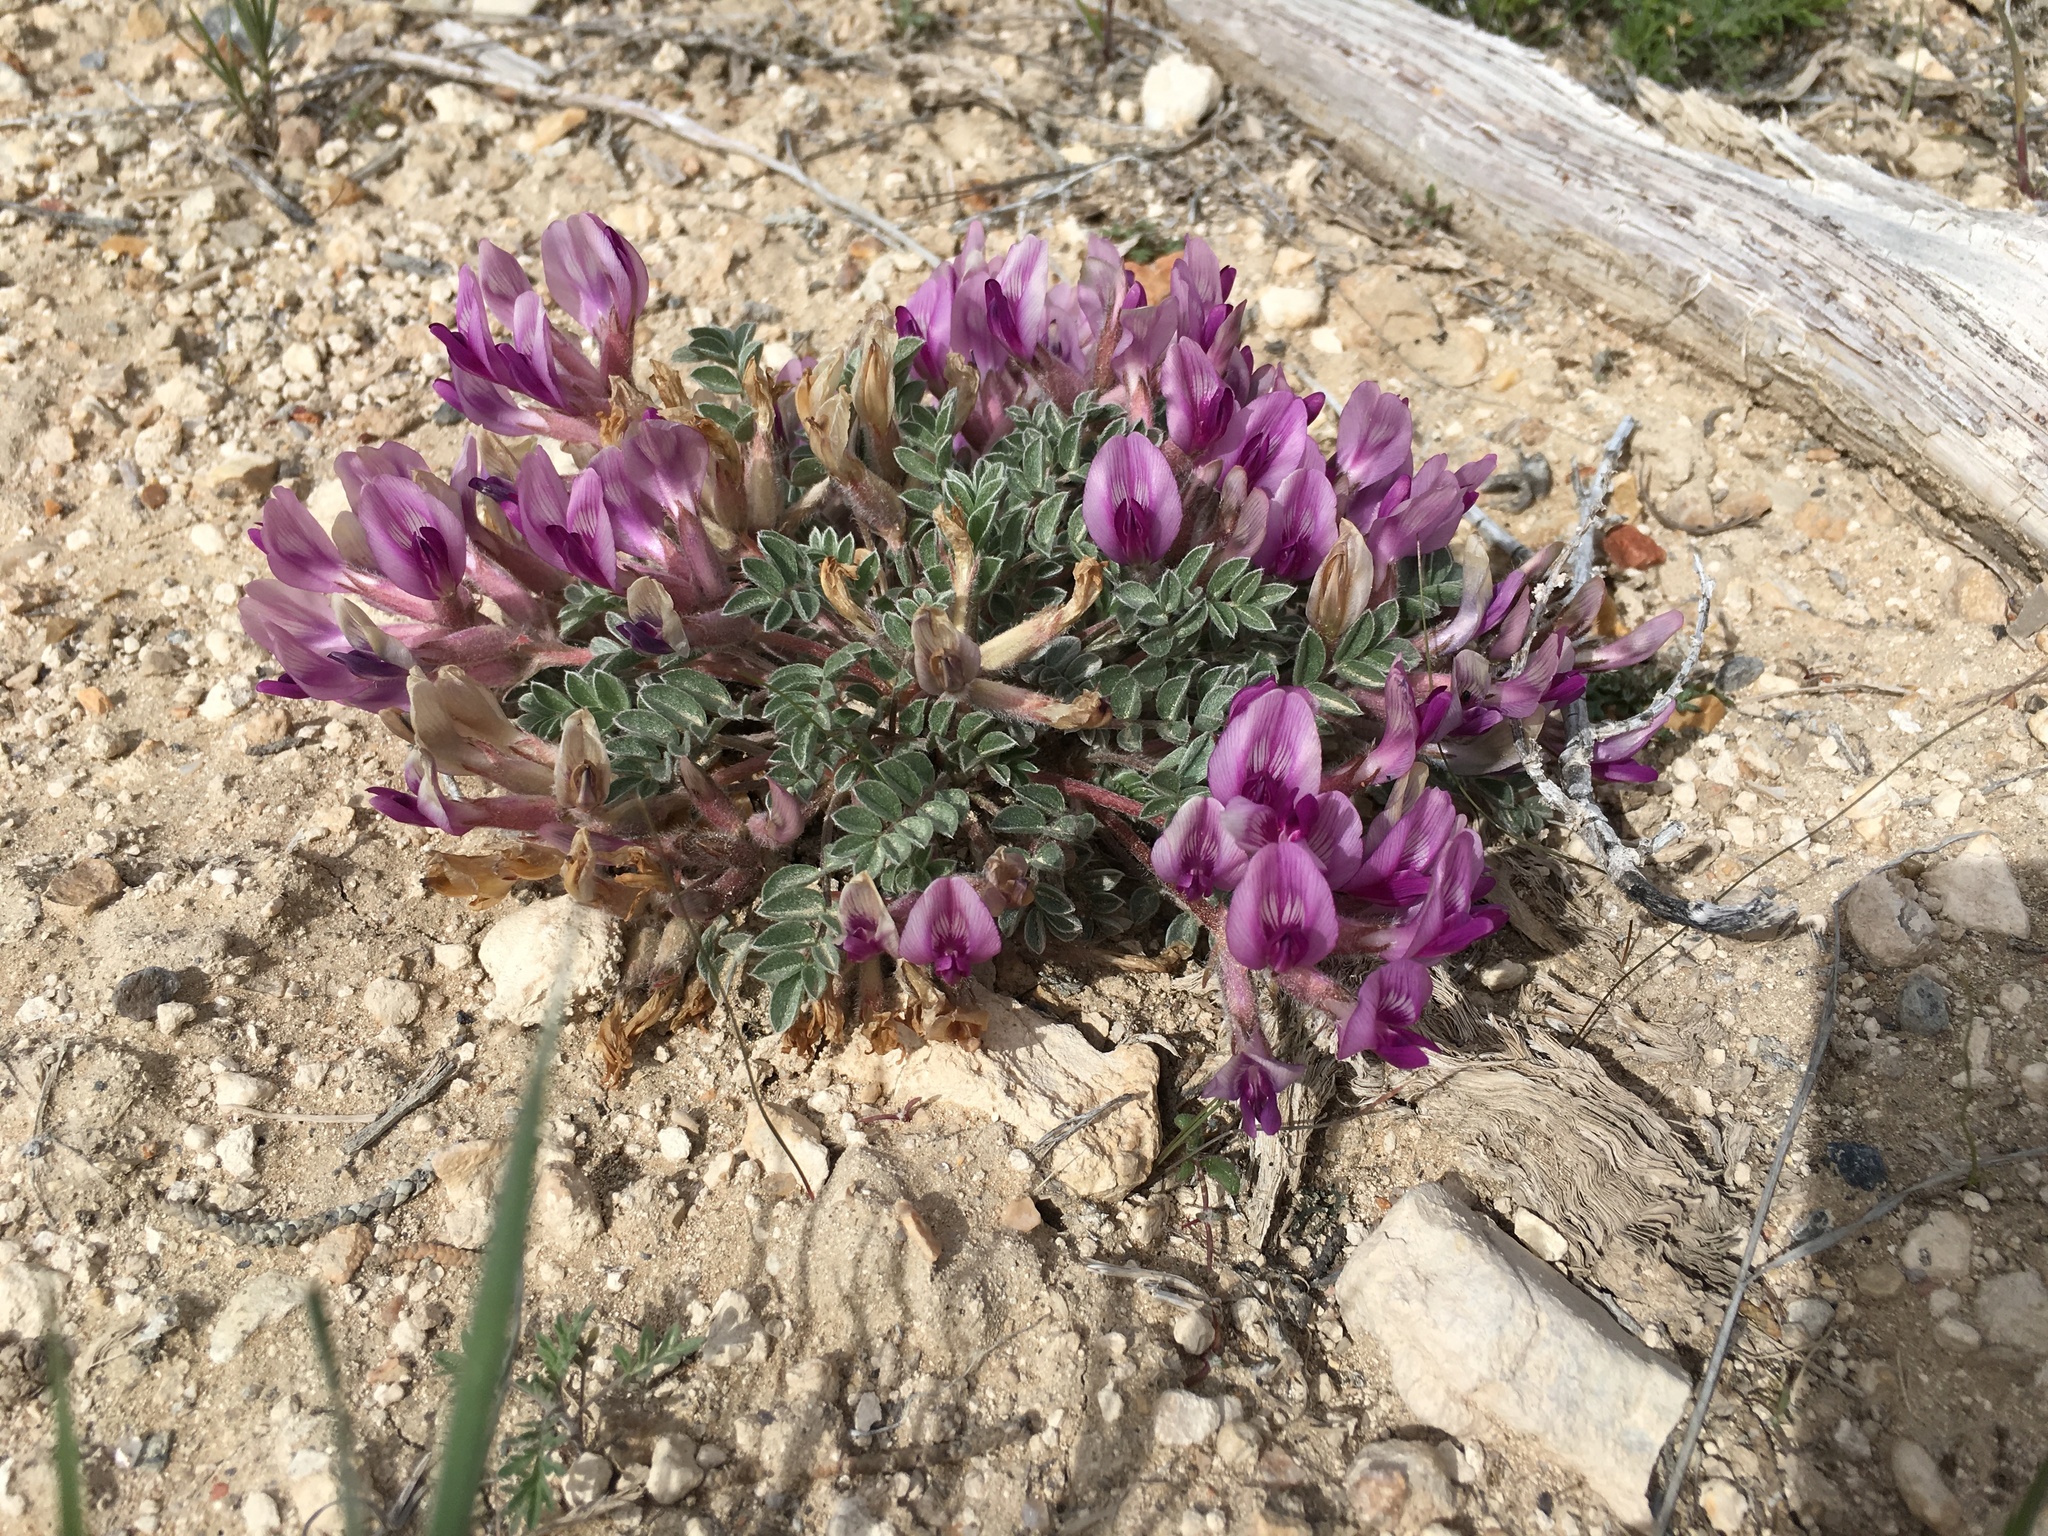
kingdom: Plantae
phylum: Tracheophyta
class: Magnoliopsida
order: Fabales
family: Fabaceae
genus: Astragalus
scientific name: Astragalus newberryi
